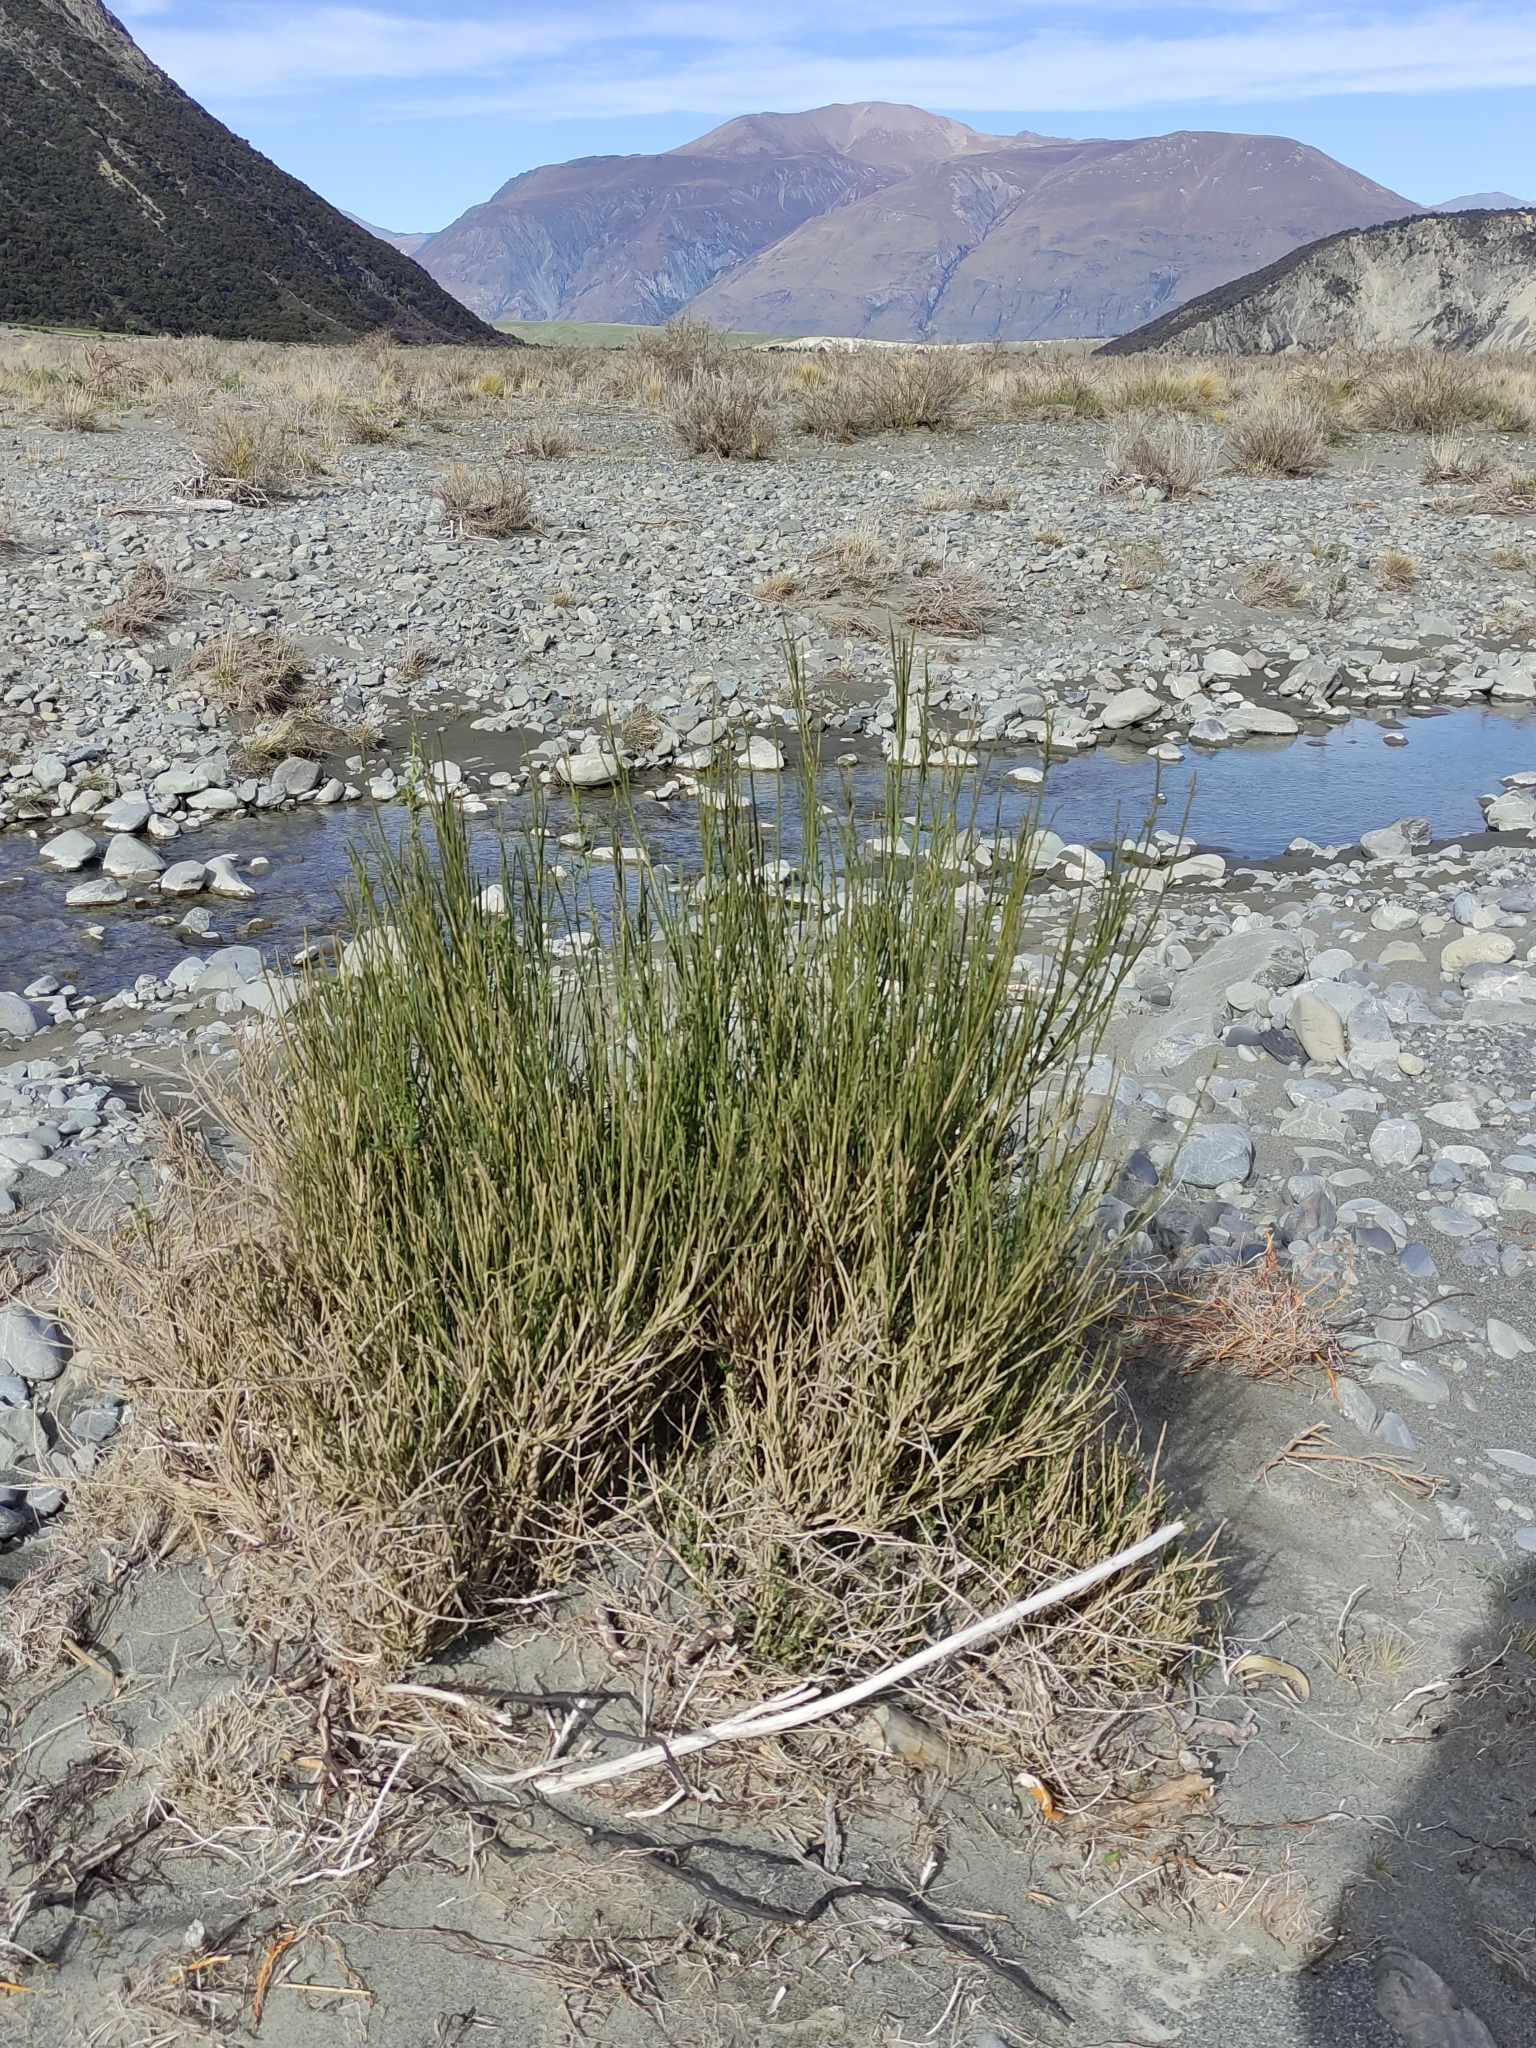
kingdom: Plantae
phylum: Tracheophyta
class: Magnoliopsida
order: Fabales
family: Fabaceae
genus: Cytisus
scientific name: Cytisus scoparius
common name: Scotch broom
